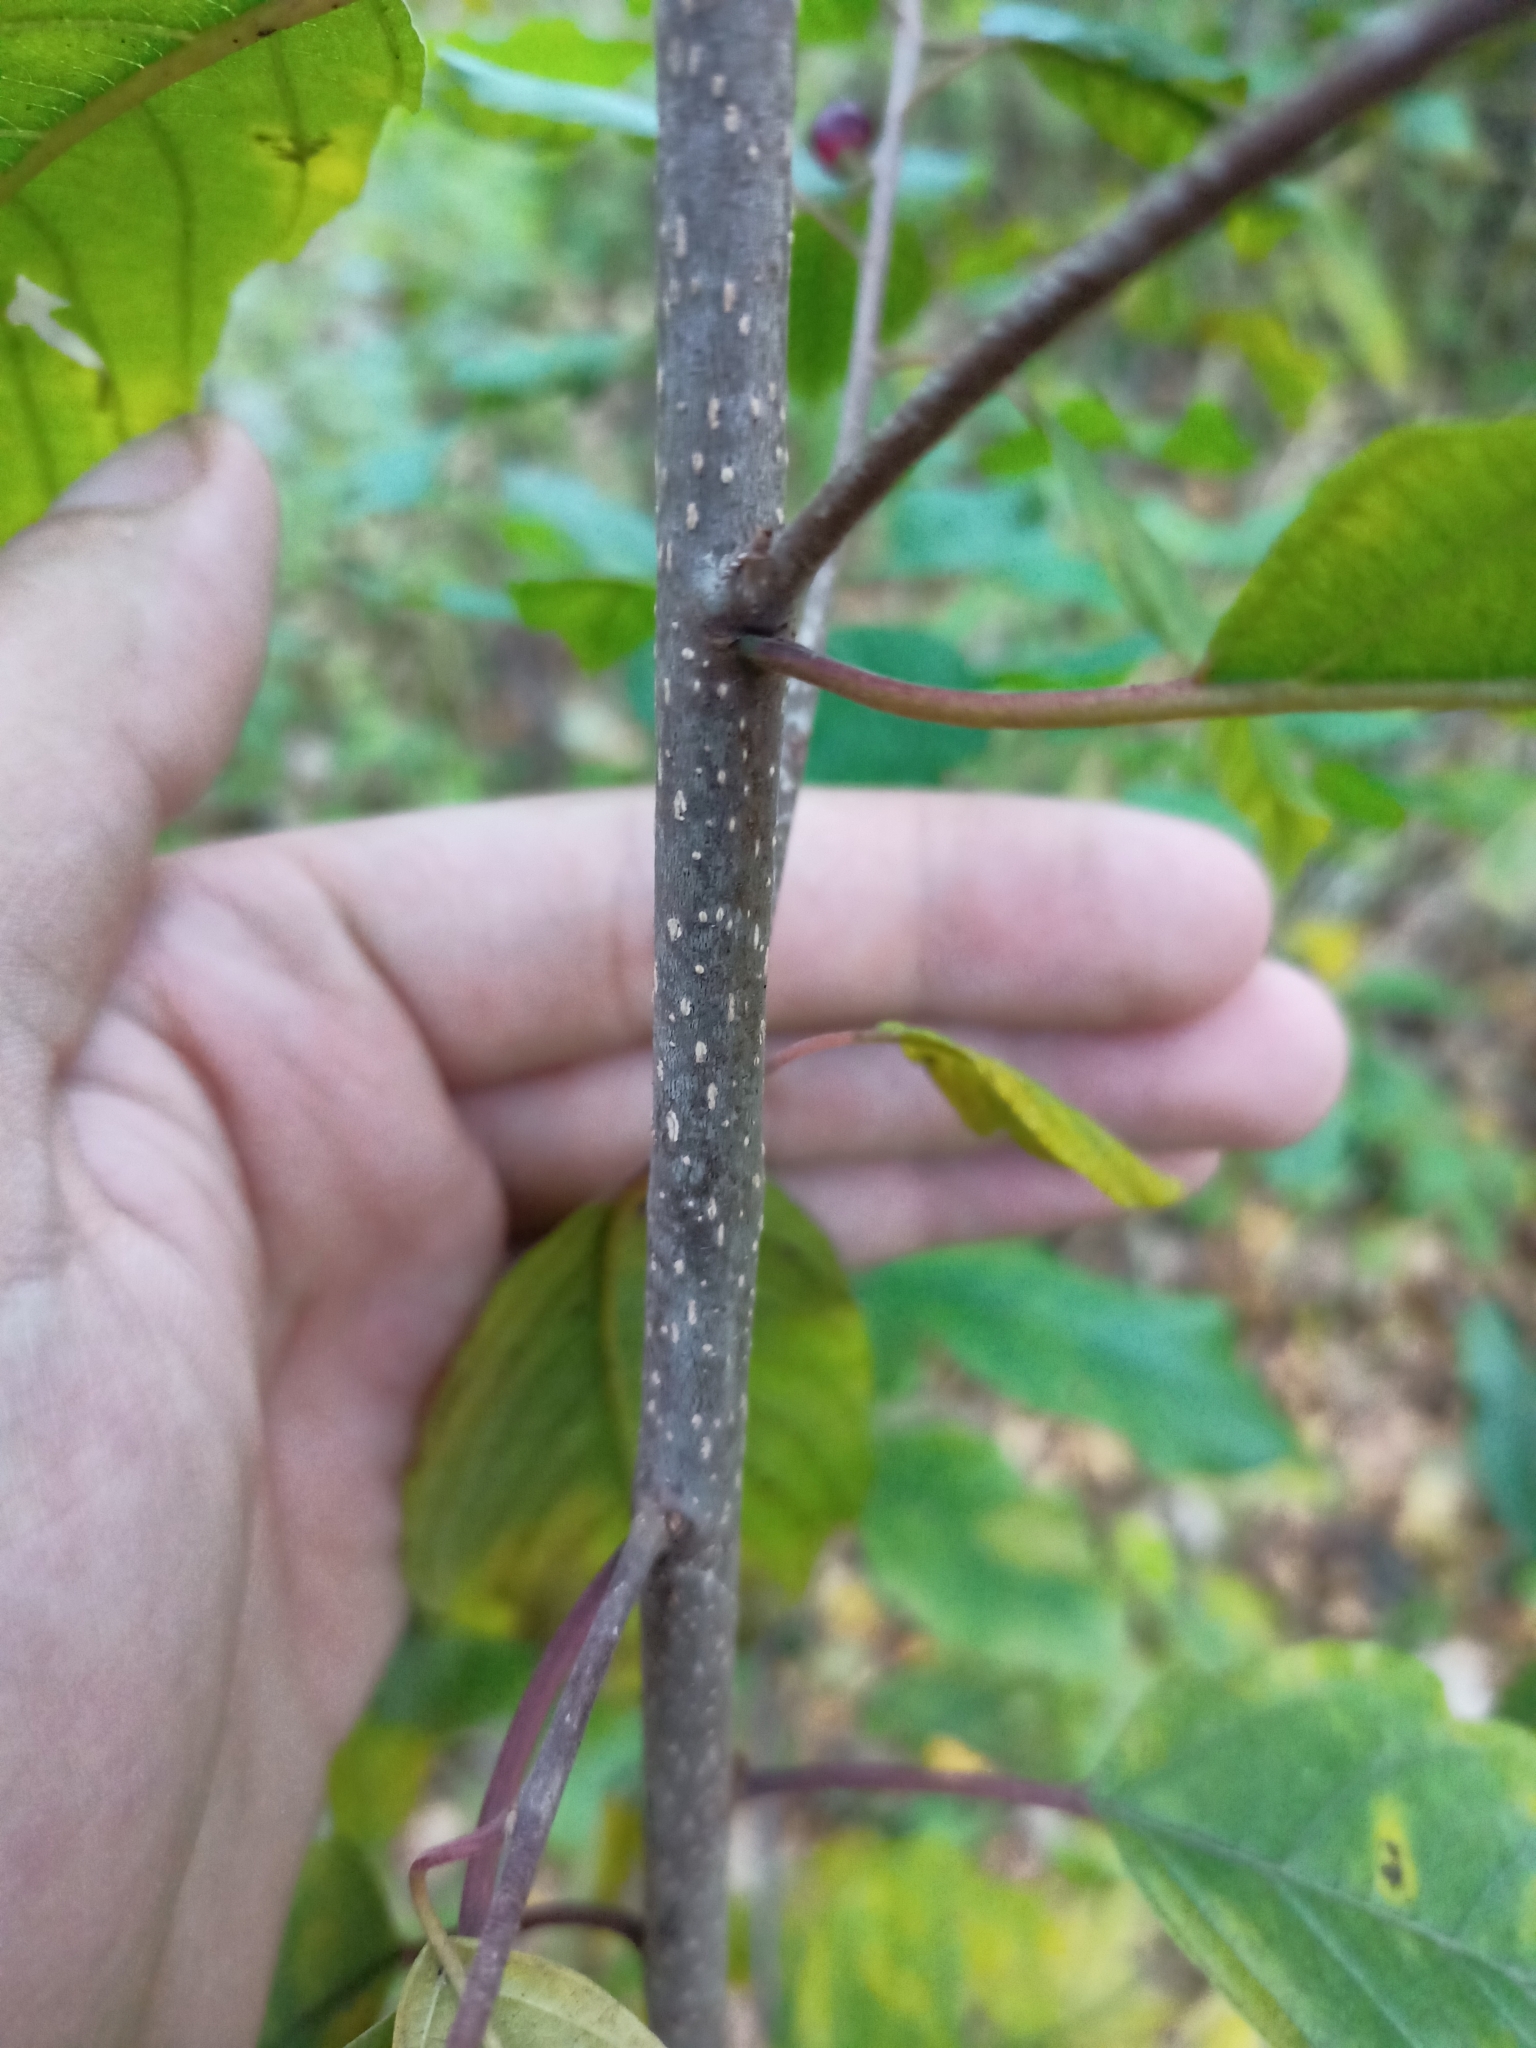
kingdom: Plantae
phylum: Tracheophyta
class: Magnoliopsida
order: Rosales
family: Rhamnaceae
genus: Frangula
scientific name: Frangula alnus
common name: Alder buckthorn
